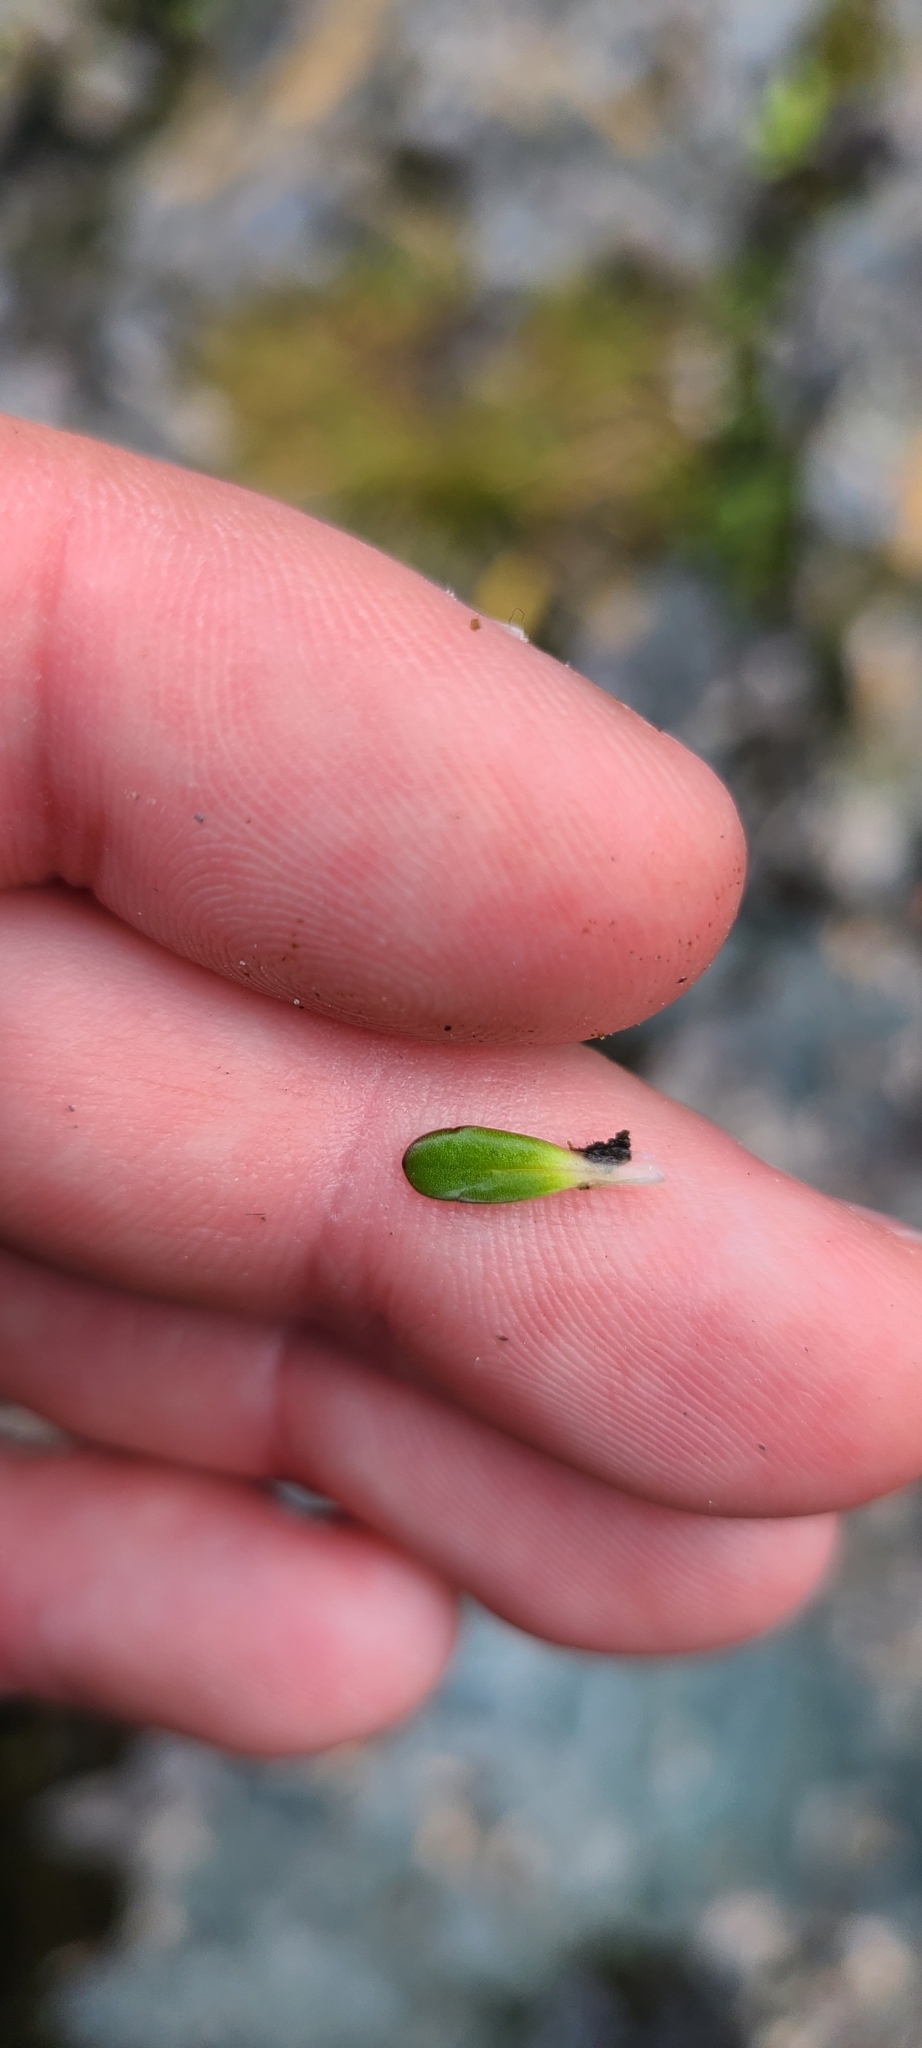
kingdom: Plantae
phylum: Tracheophyta
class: Magnoliopsida
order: Asterales
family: Asteraceae
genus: Celmisia
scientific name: Celmisia bellidioides
